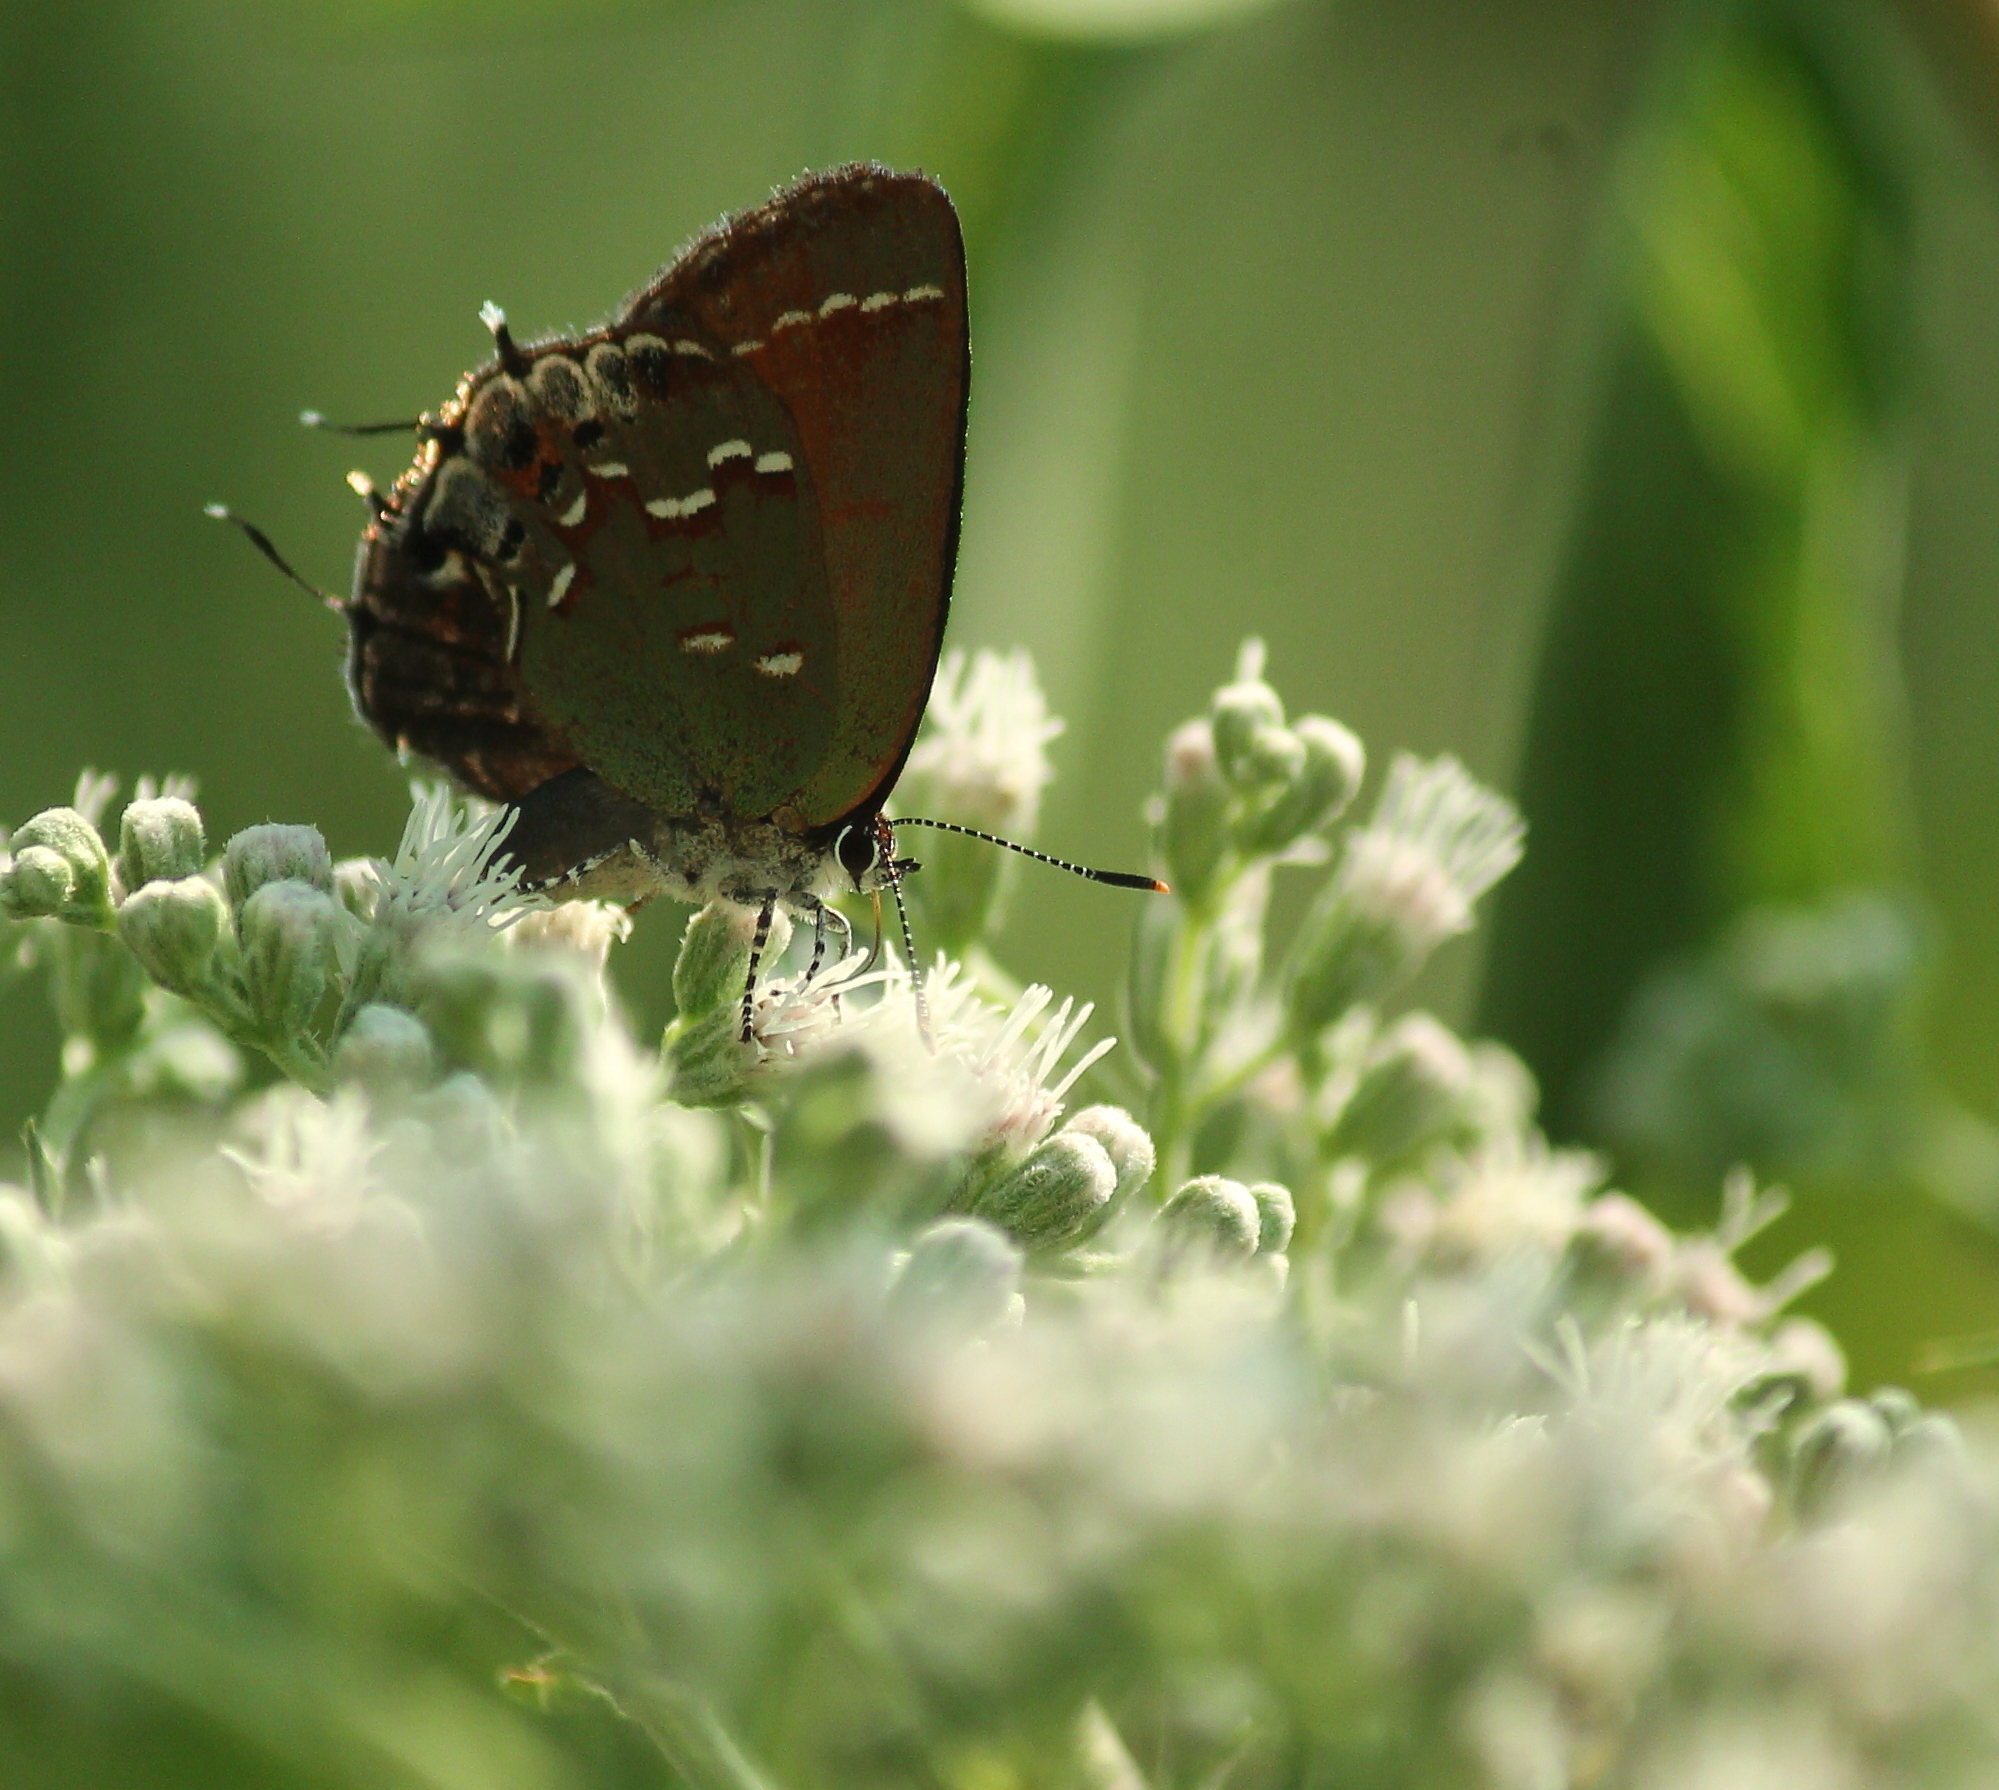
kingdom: Animalia
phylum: Arthropoda
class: Insecta
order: Lepidoptera
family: Lycaenidae
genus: Mitoura
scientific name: Mitoura gryneus
